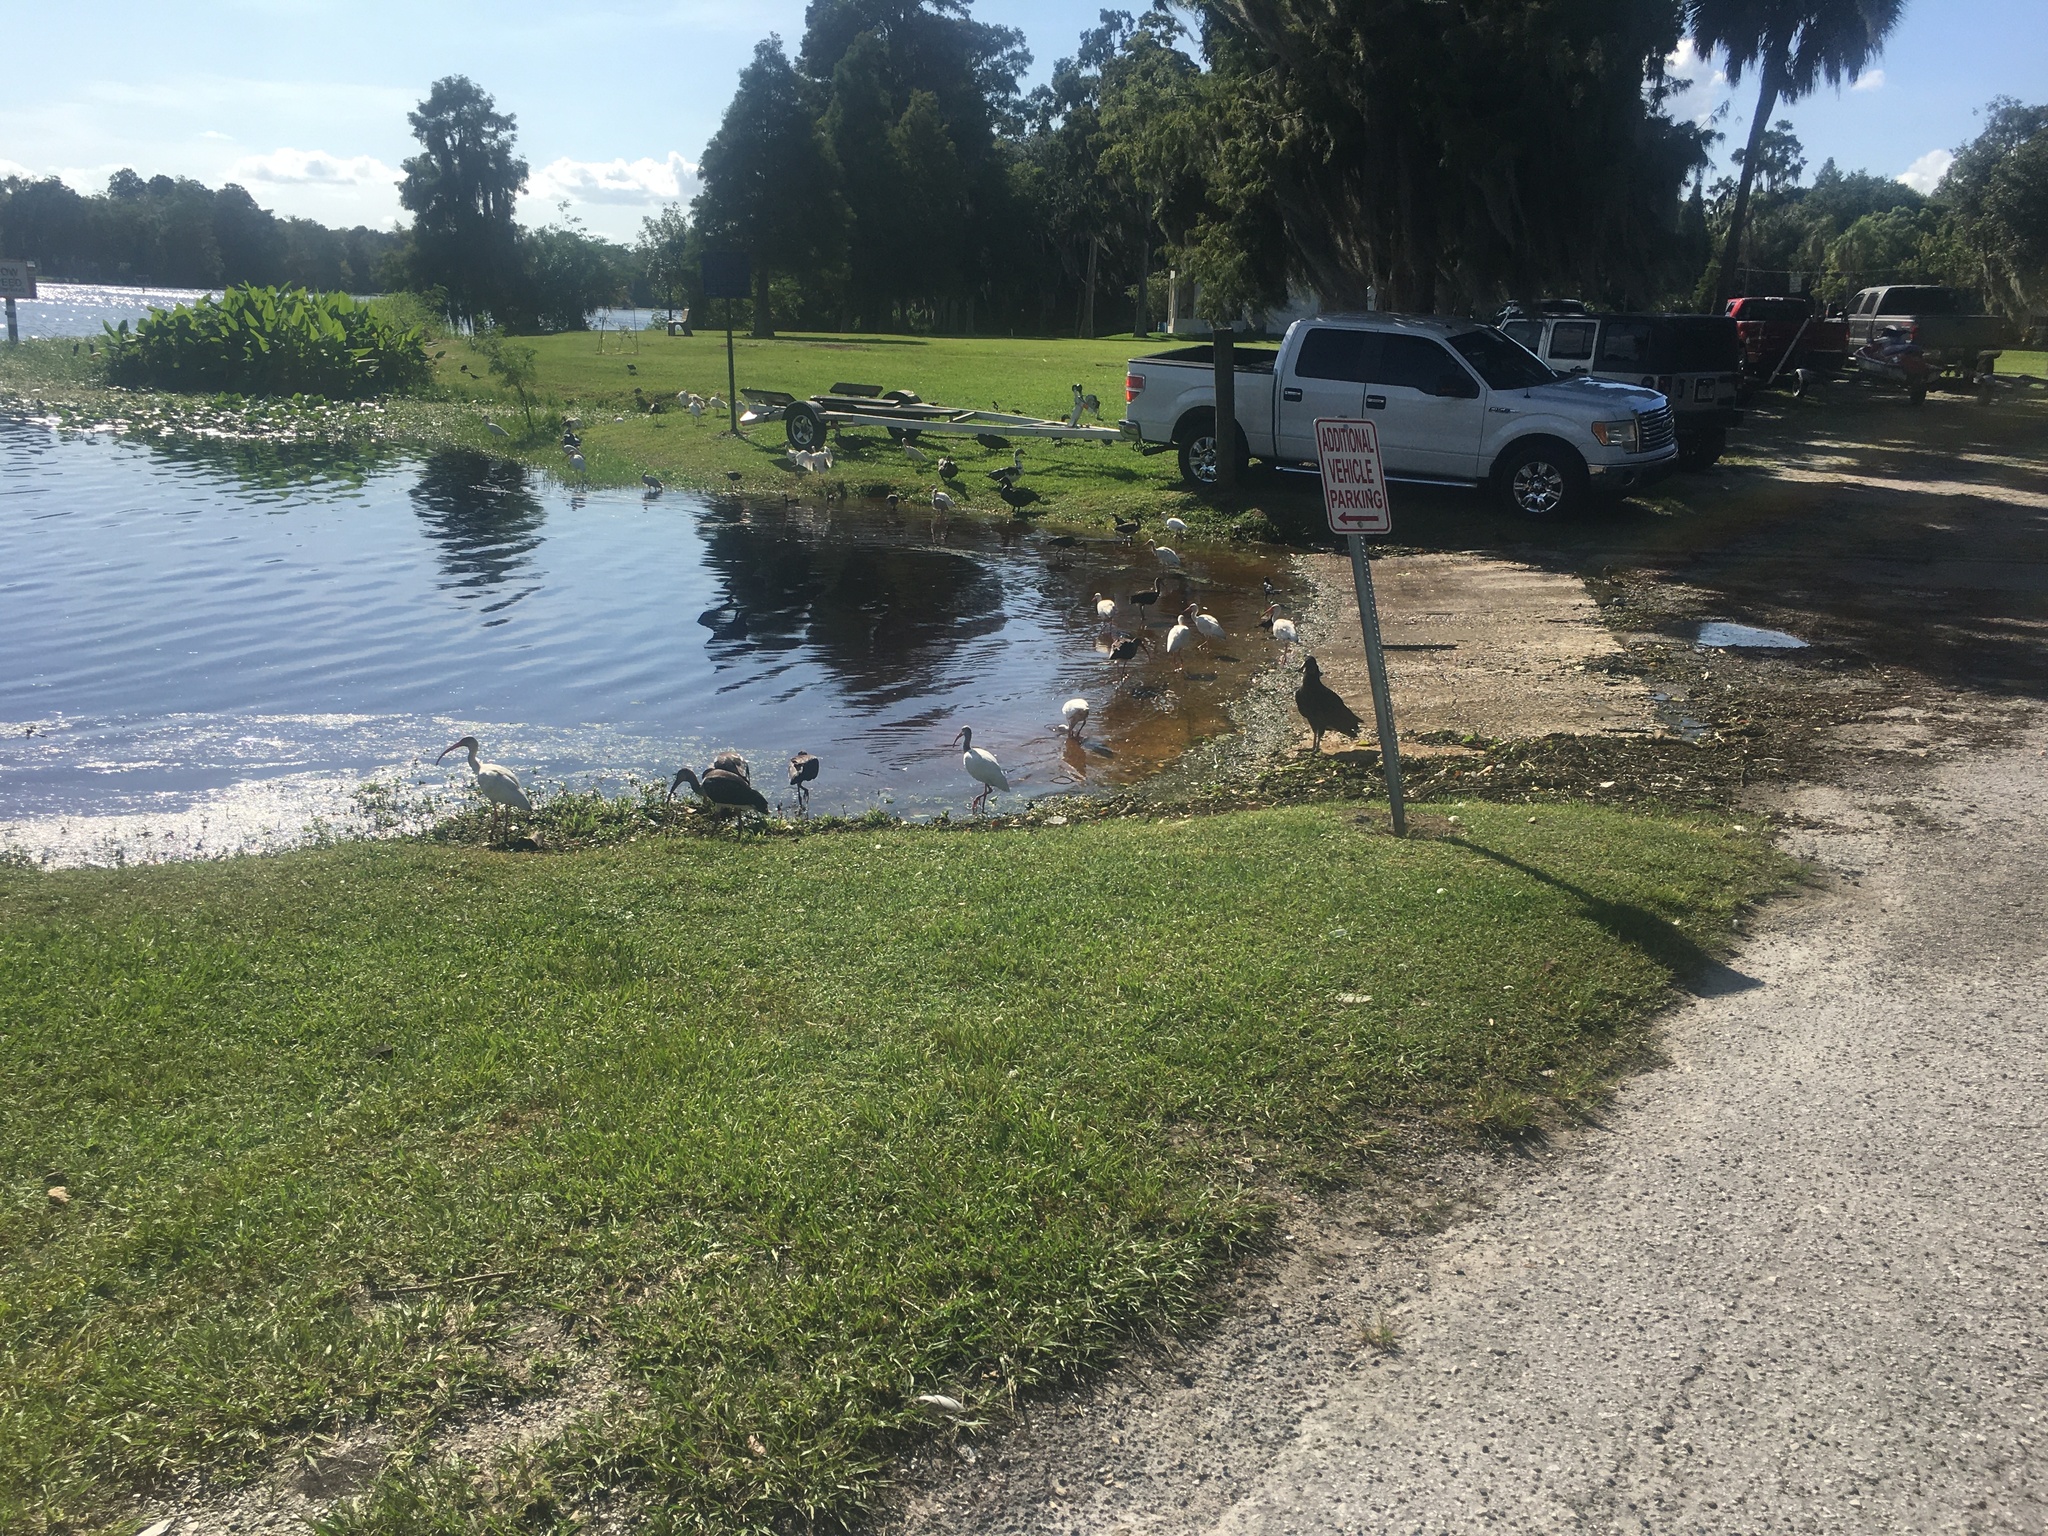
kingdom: Animalia
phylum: Chordata
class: Aves
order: Pelecaniformes
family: Threskiornithidae
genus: Eudocimus
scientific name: Eudocimus albus
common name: White ibis
